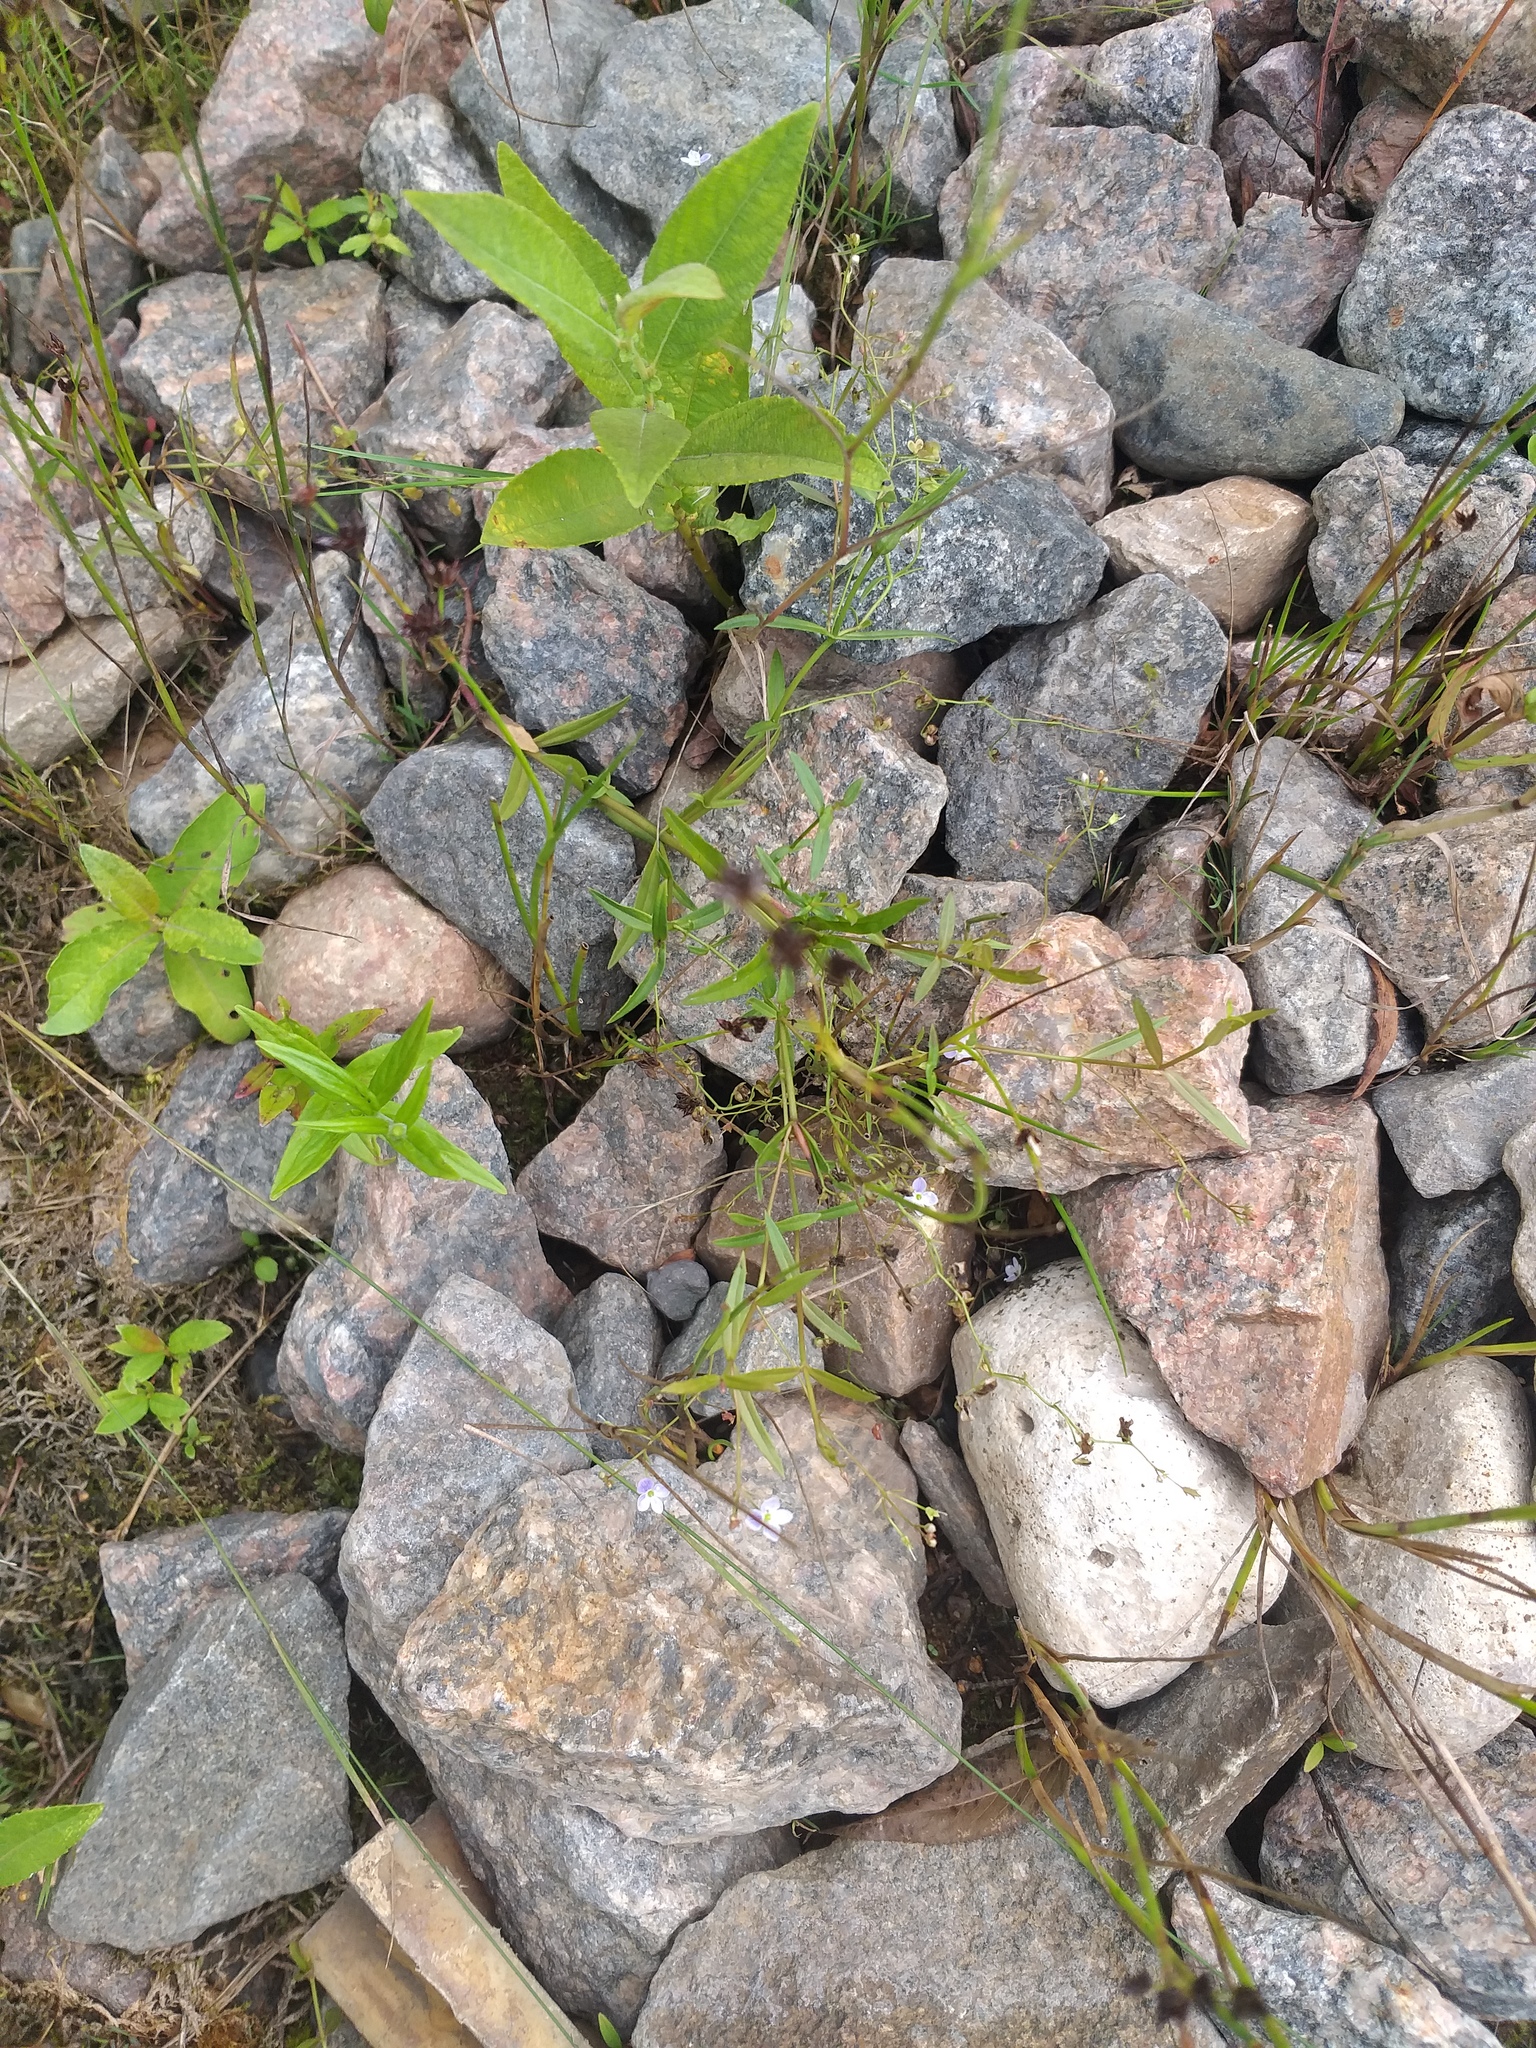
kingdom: Plantae
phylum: Tracheophyta
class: Magnoliopsida
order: Lamiales
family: Plantaginaceae
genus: Veronica
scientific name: Veronica scutellata
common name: Marsh speedwell
